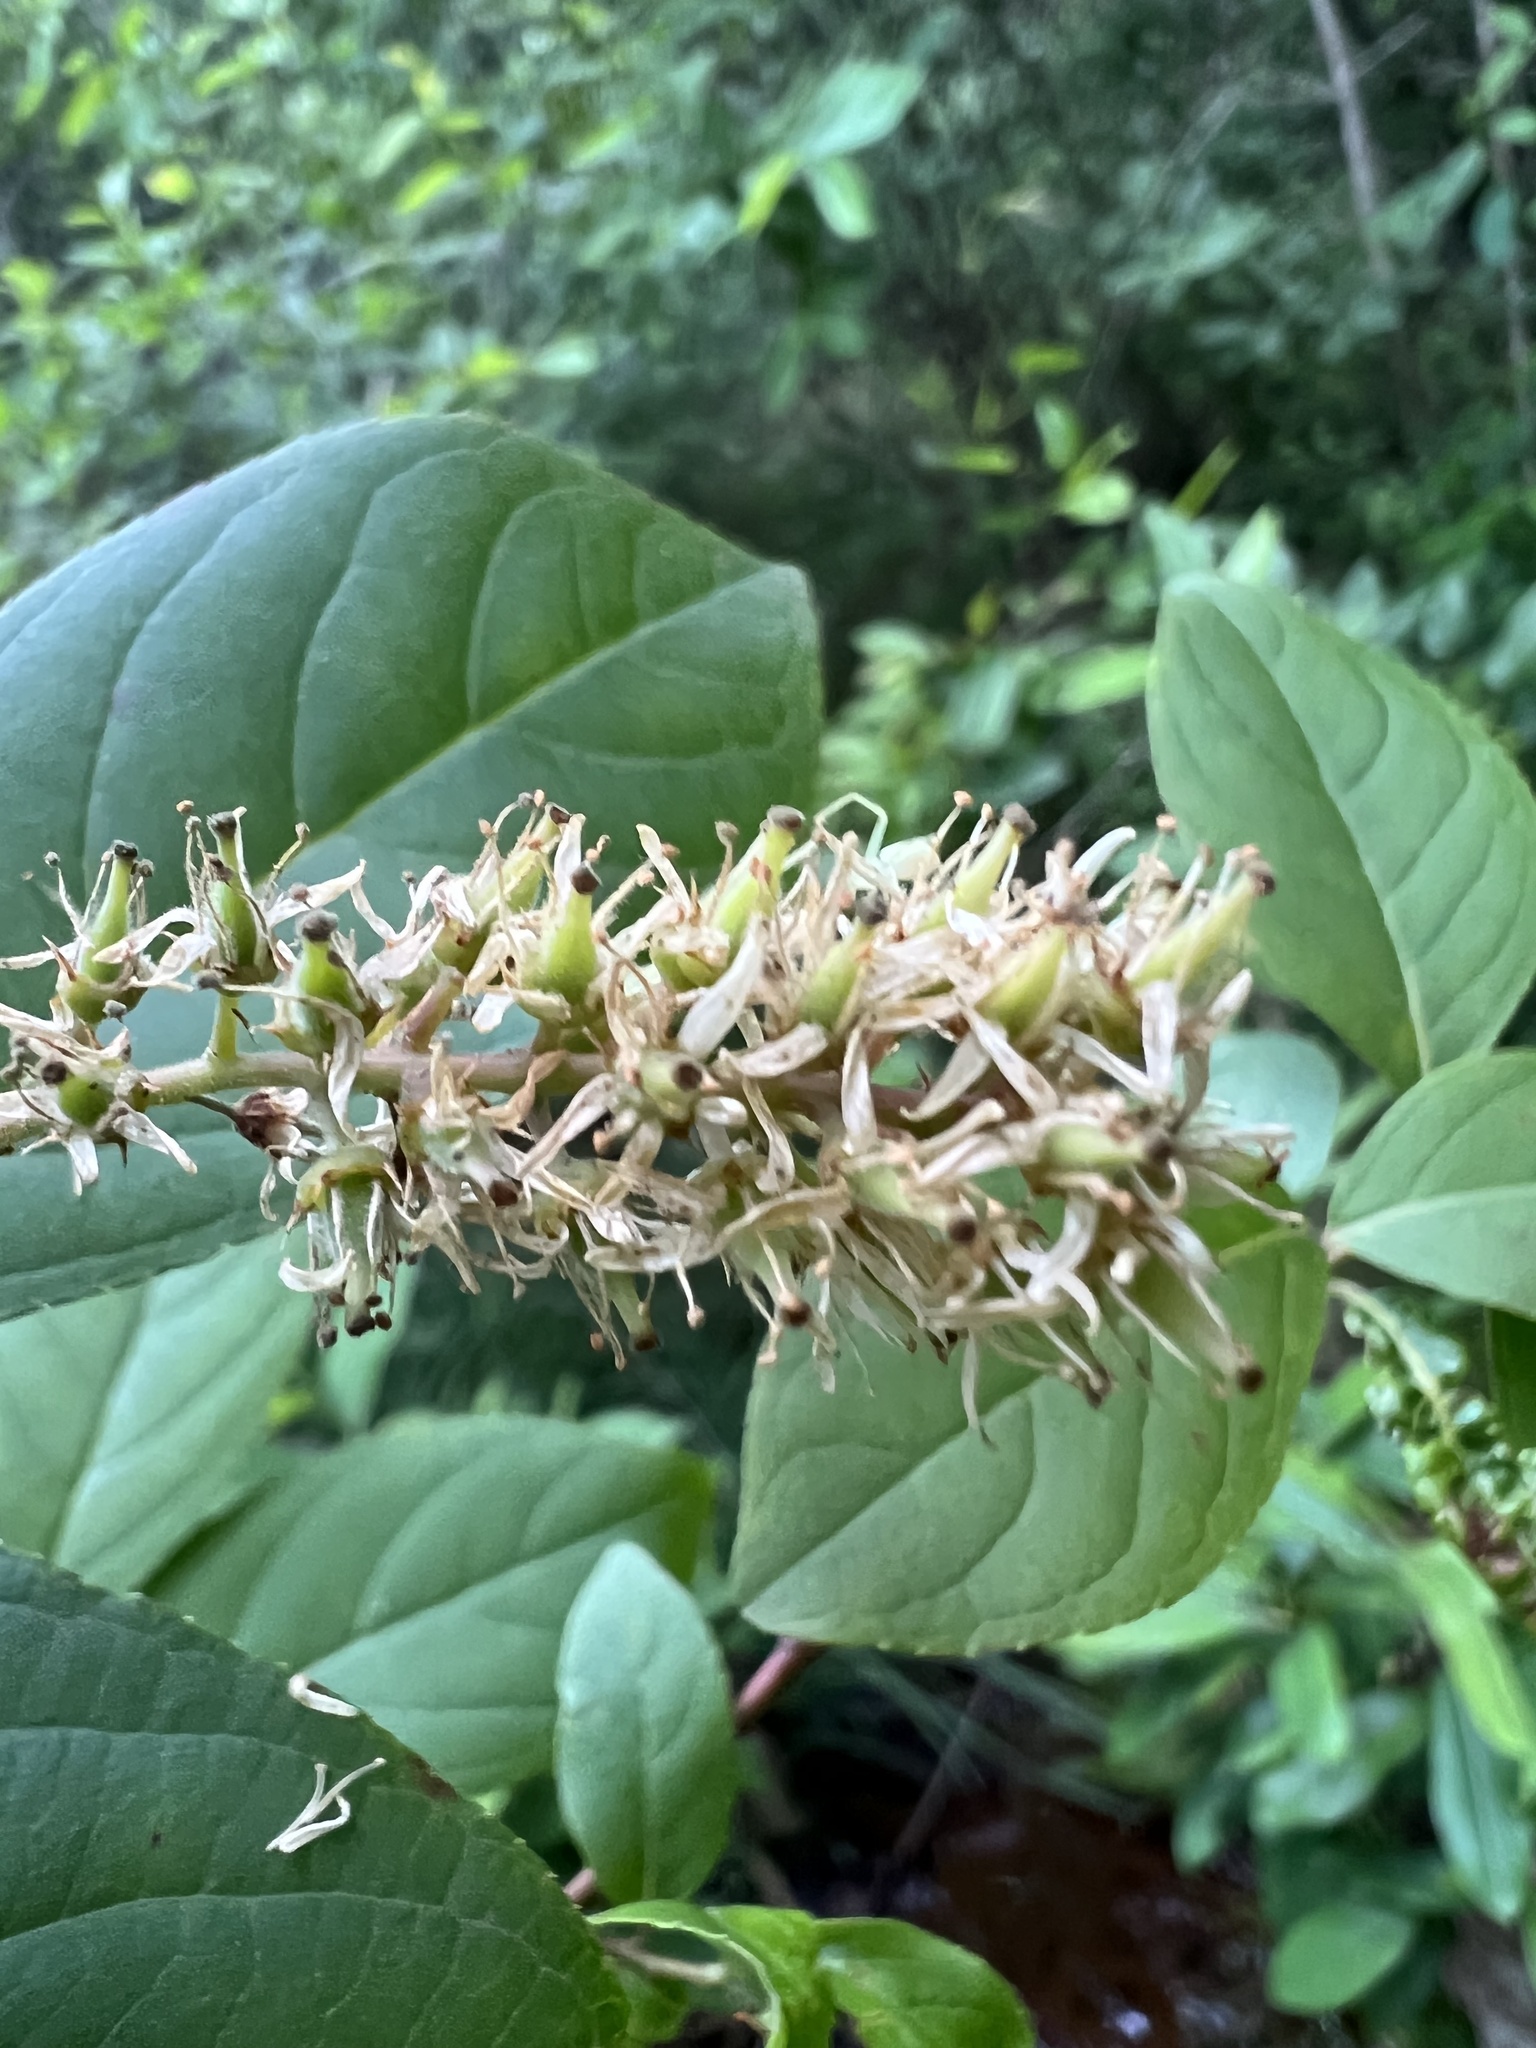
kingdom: Plantae
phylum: Tracheophyta
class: Magnoliopsida
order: Saxifragales
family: Iteaceae
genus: Itea
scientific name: Itea virginica
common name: Sweetspire
